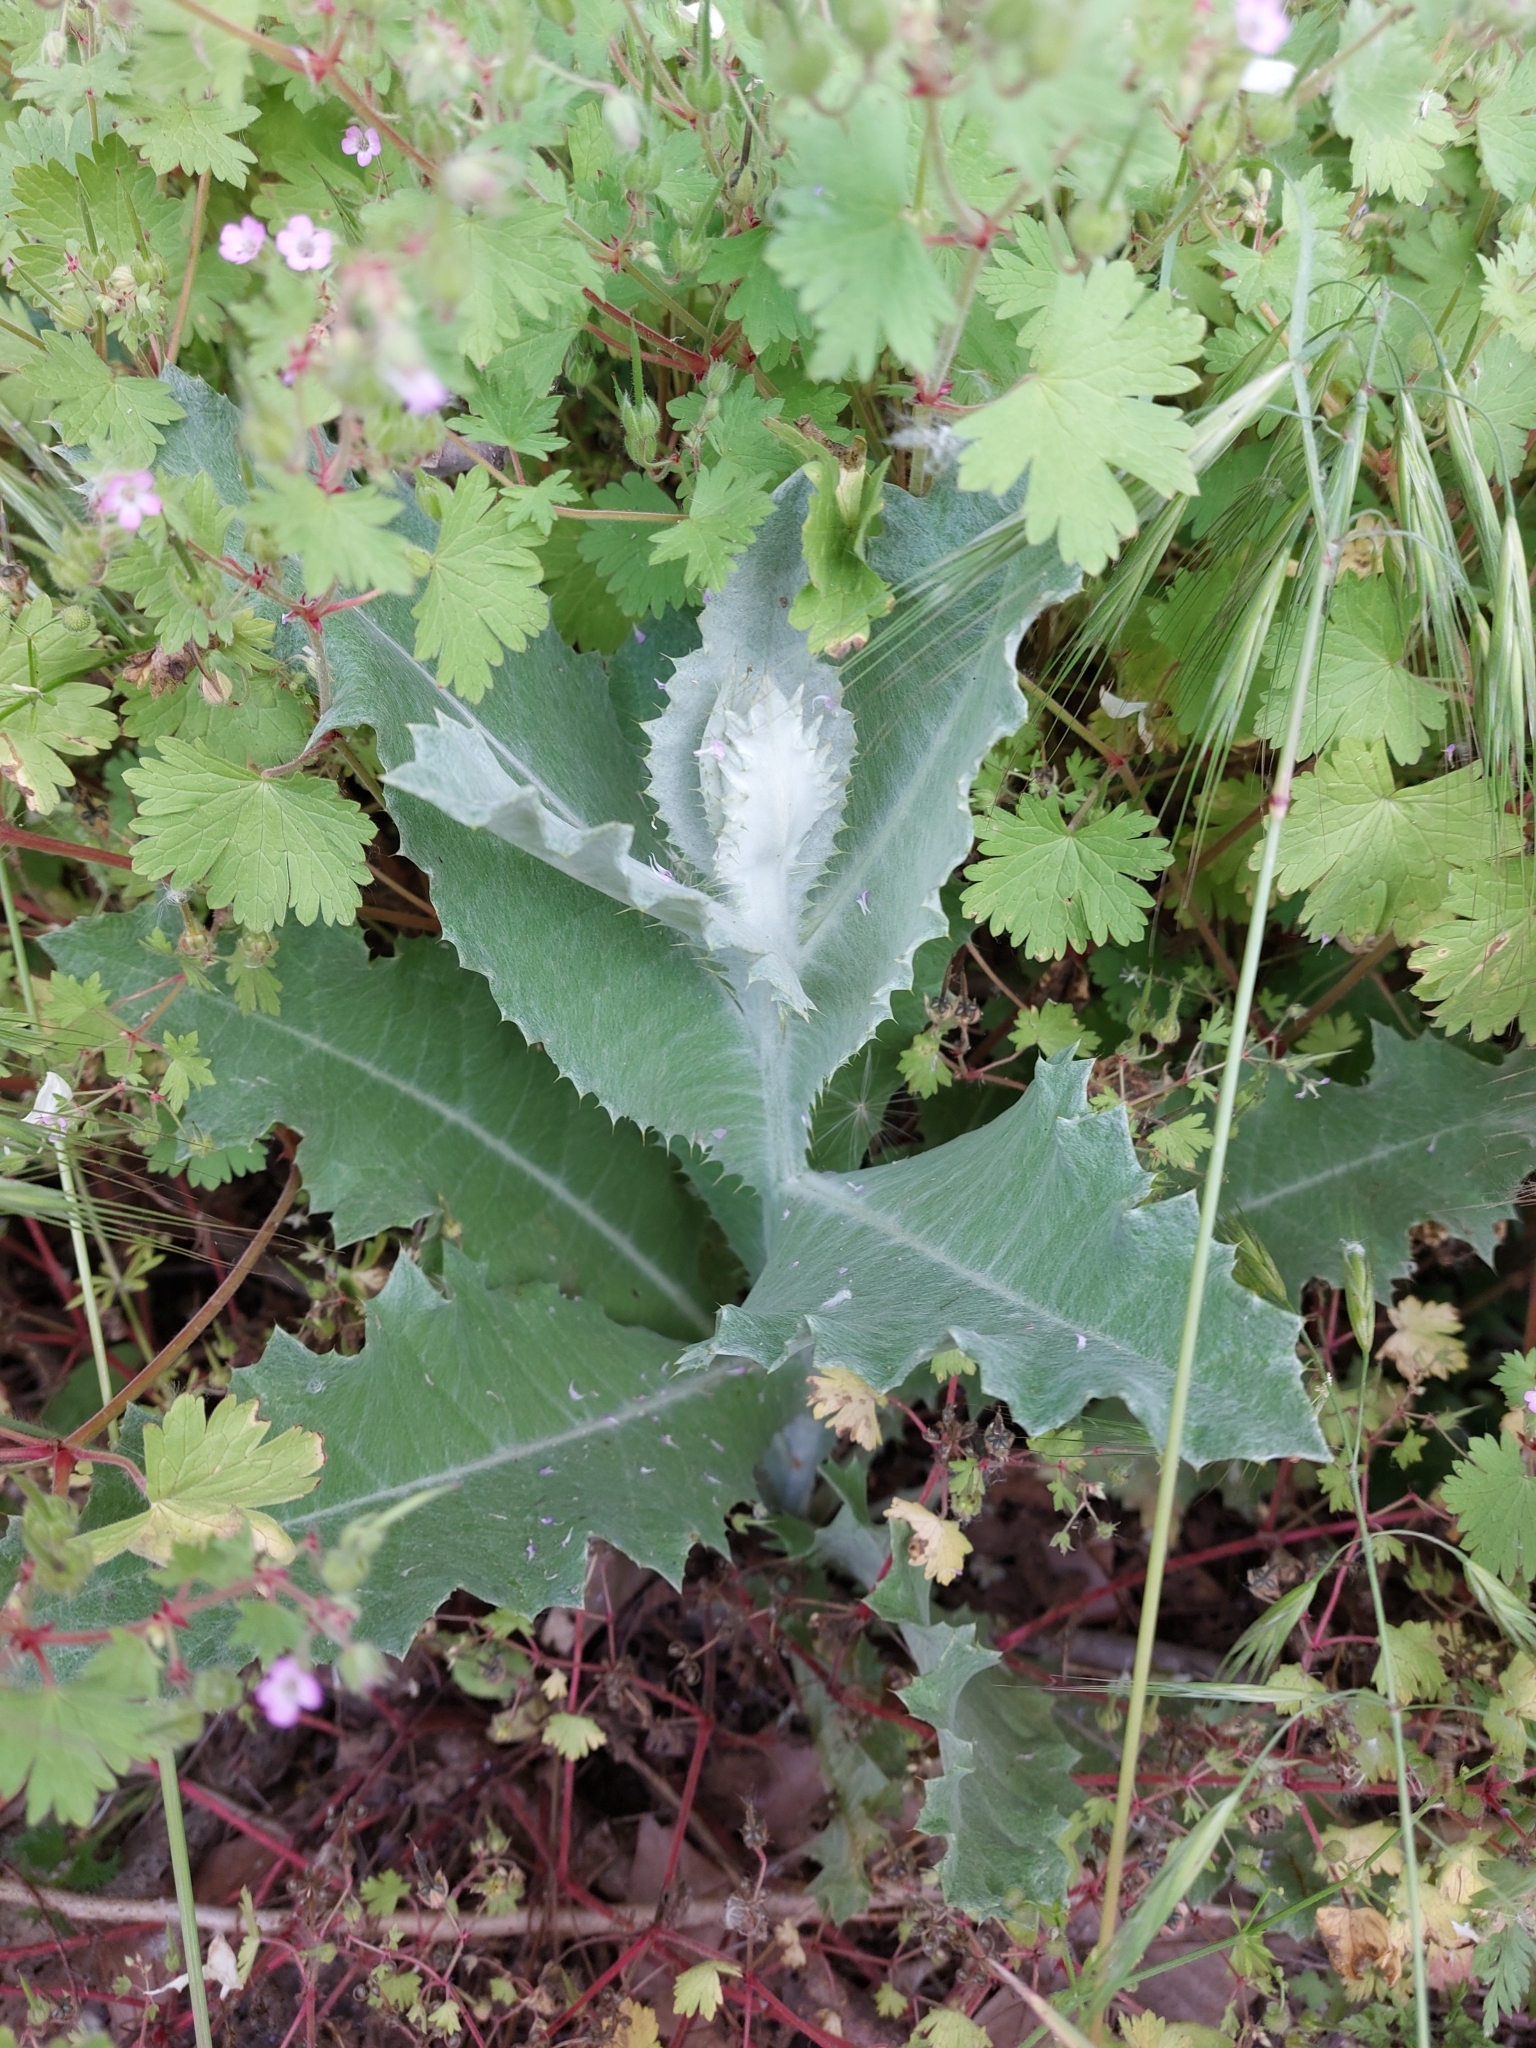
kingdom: Plantae
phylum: Tracheophyta
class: Magnoliopsida
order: Asterales
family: Asteraceae
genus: Onopordum
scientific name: Onopordum acanthium
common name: Scotch thistle
